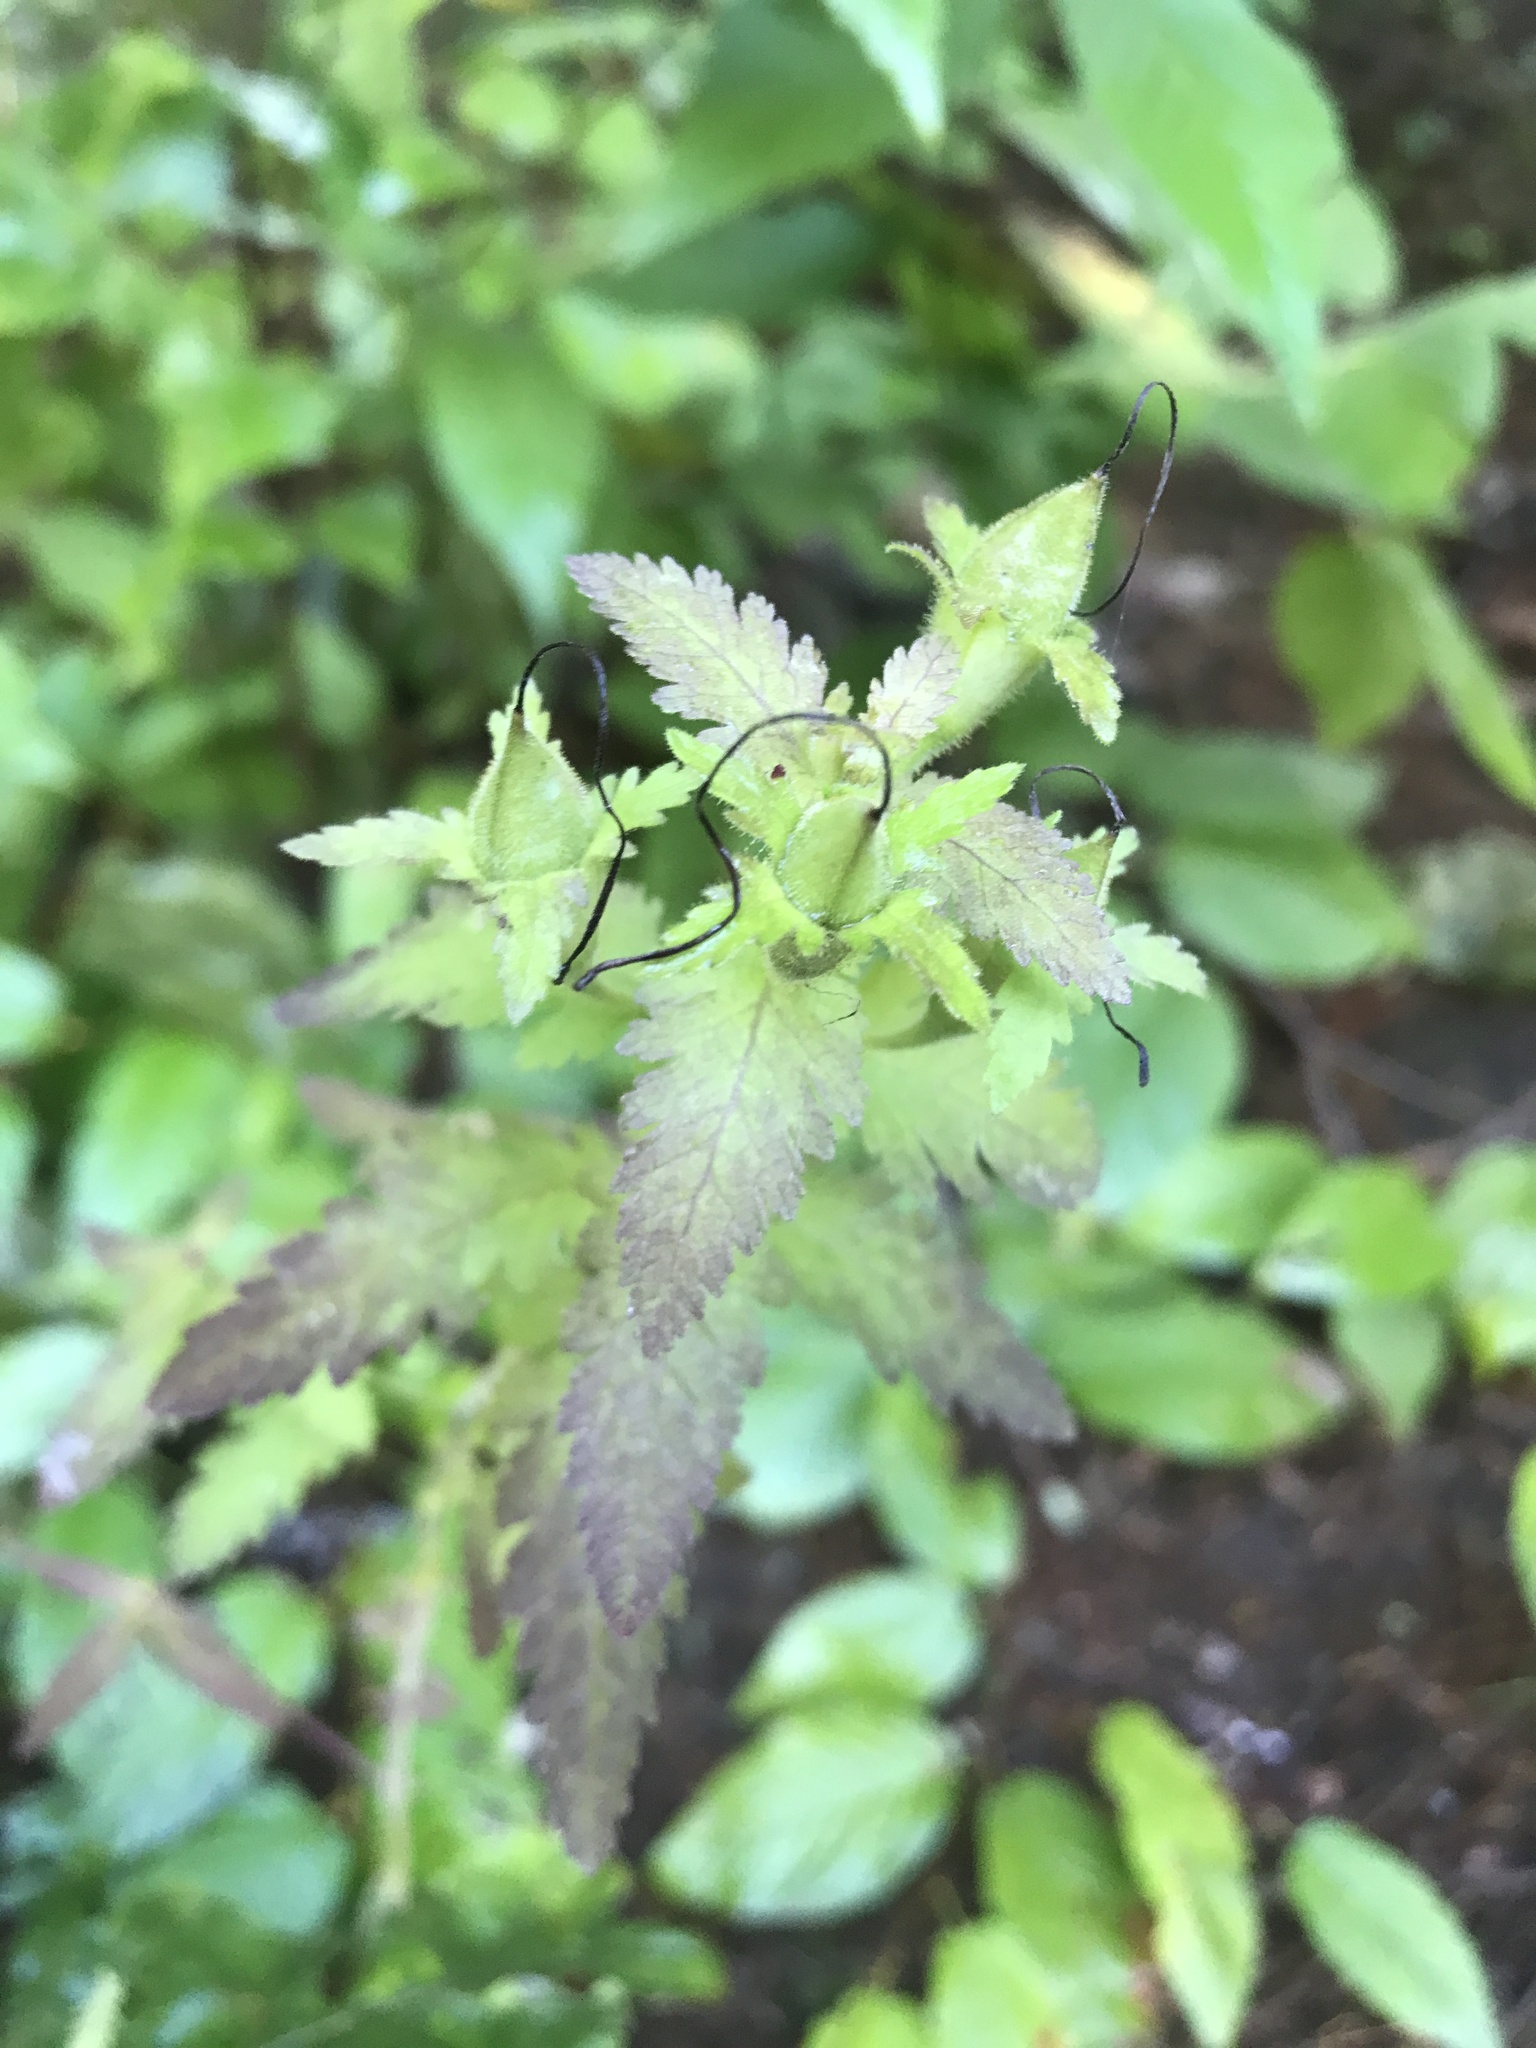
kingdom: Plantae
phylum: Tracheophyta
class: Magnoliopsida
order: Lamiales
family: Orobanchaceae
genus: Aureolaria
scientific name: Aureolaria pedicularia
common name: Annual false foxglove
